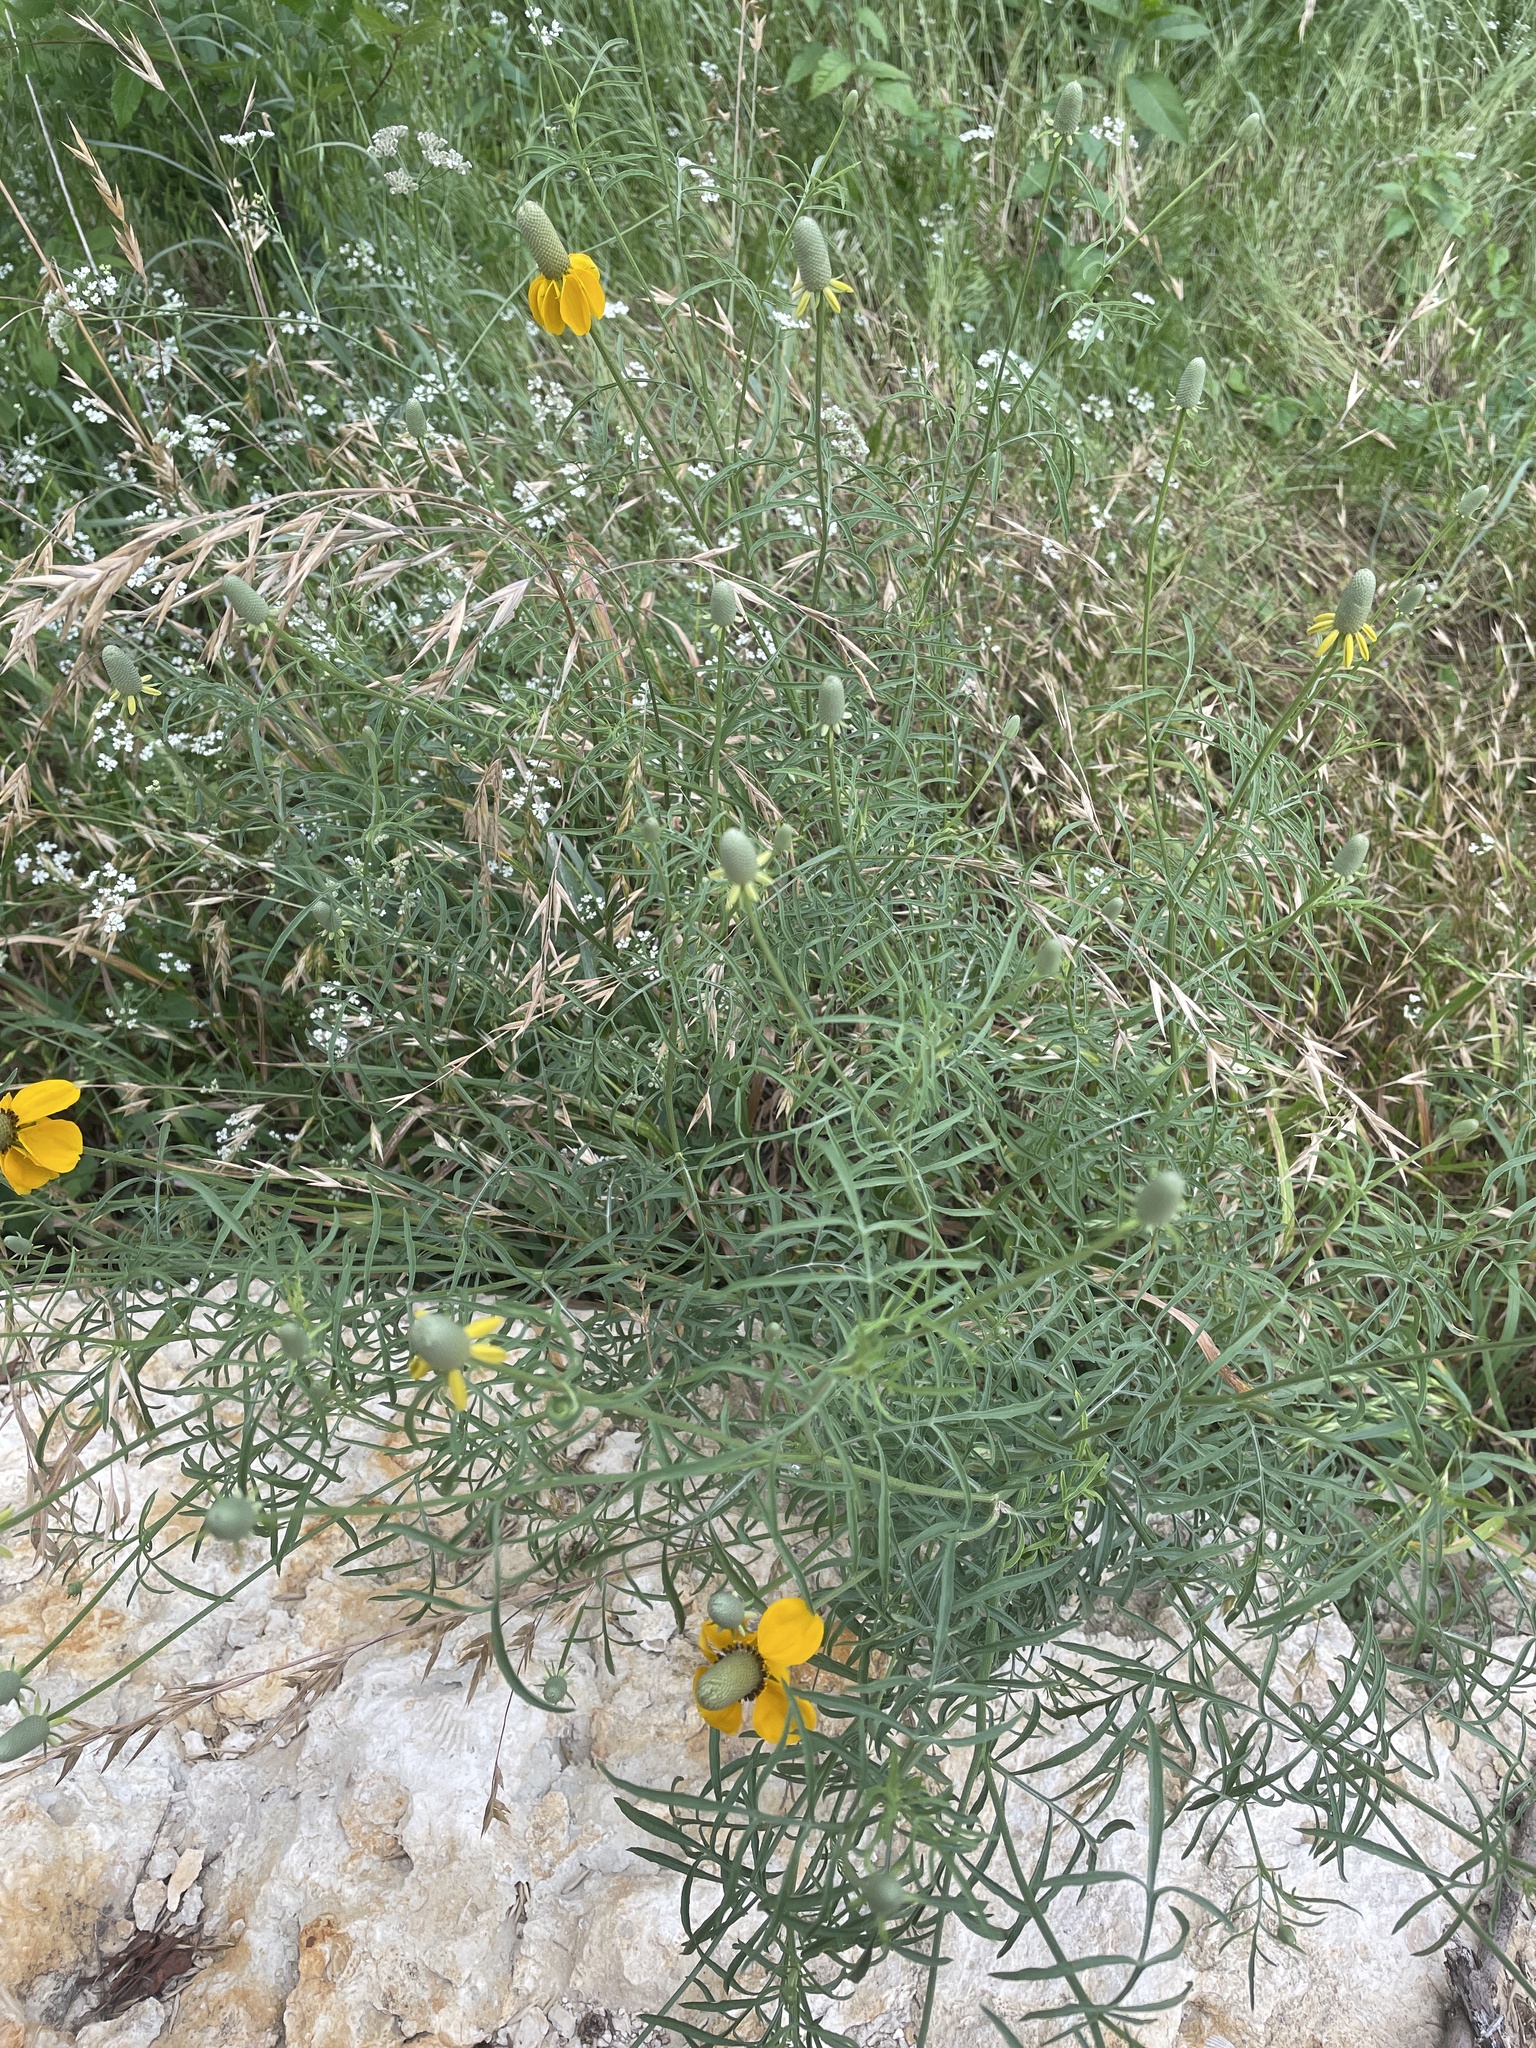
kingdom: Plantae
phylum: Tracheophyta
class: Magnoliopsida
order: Asterales
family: Asteraceae
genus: Ratibida
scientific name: Ratibida columnifera
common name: Prairie coneflower
